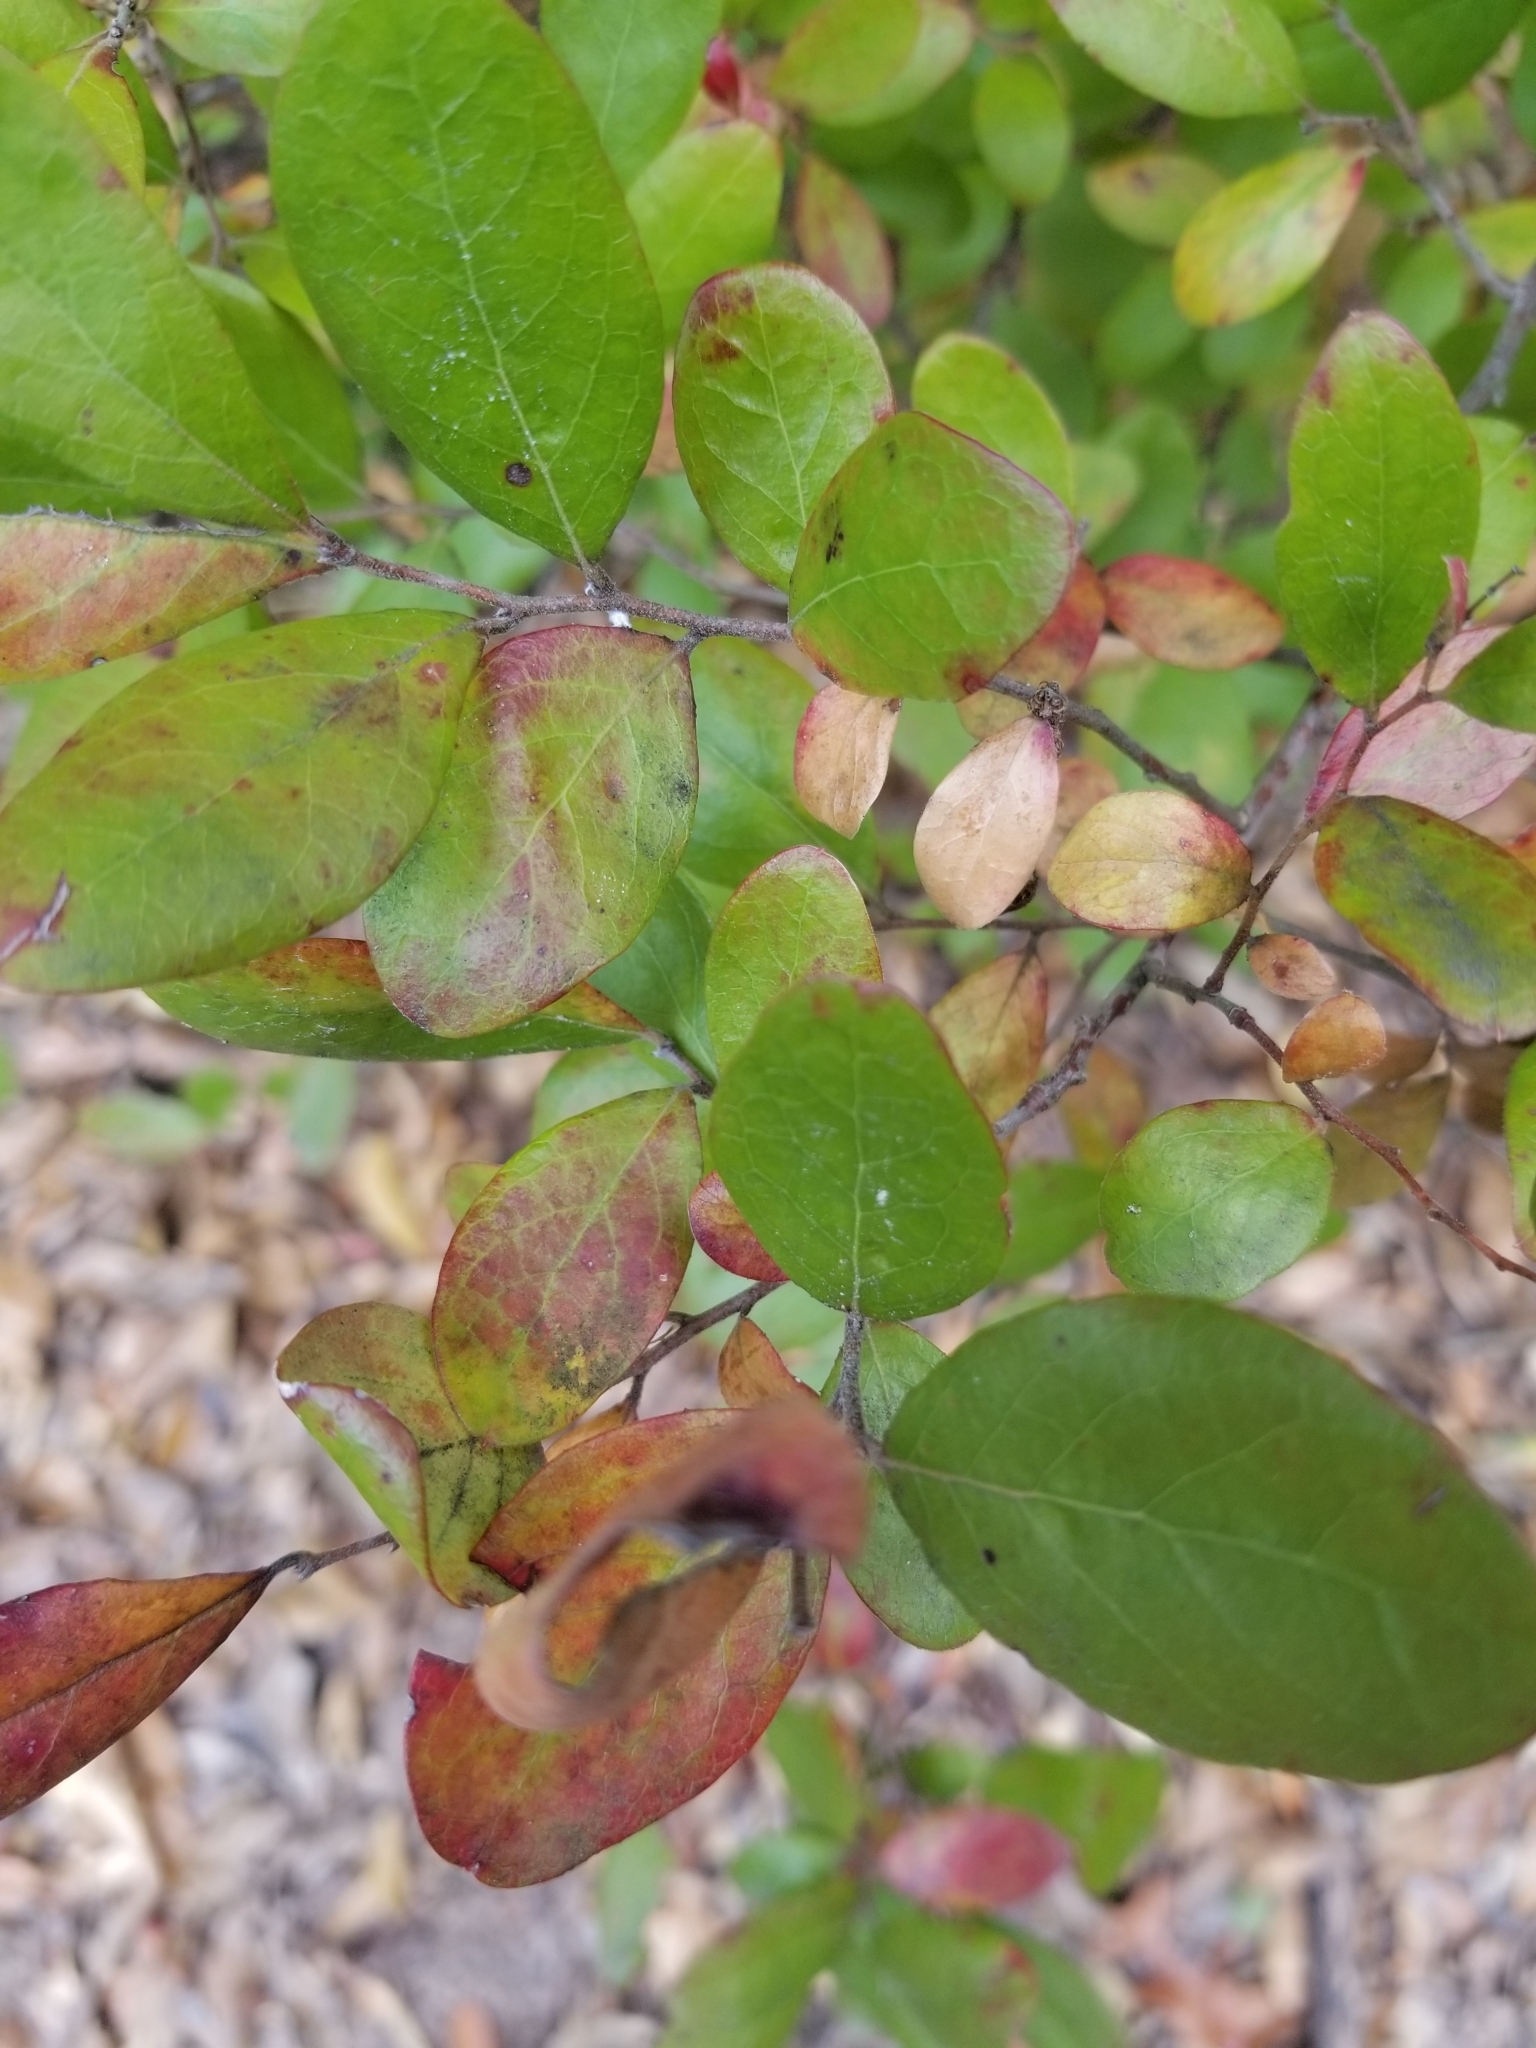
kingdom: Plantae
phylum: Tracheophyta
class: Magnoliopsida
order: Ericales
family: Ericaceae
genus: Vaccinium
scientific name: Vaccinium arboreum
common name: Farkleberry
